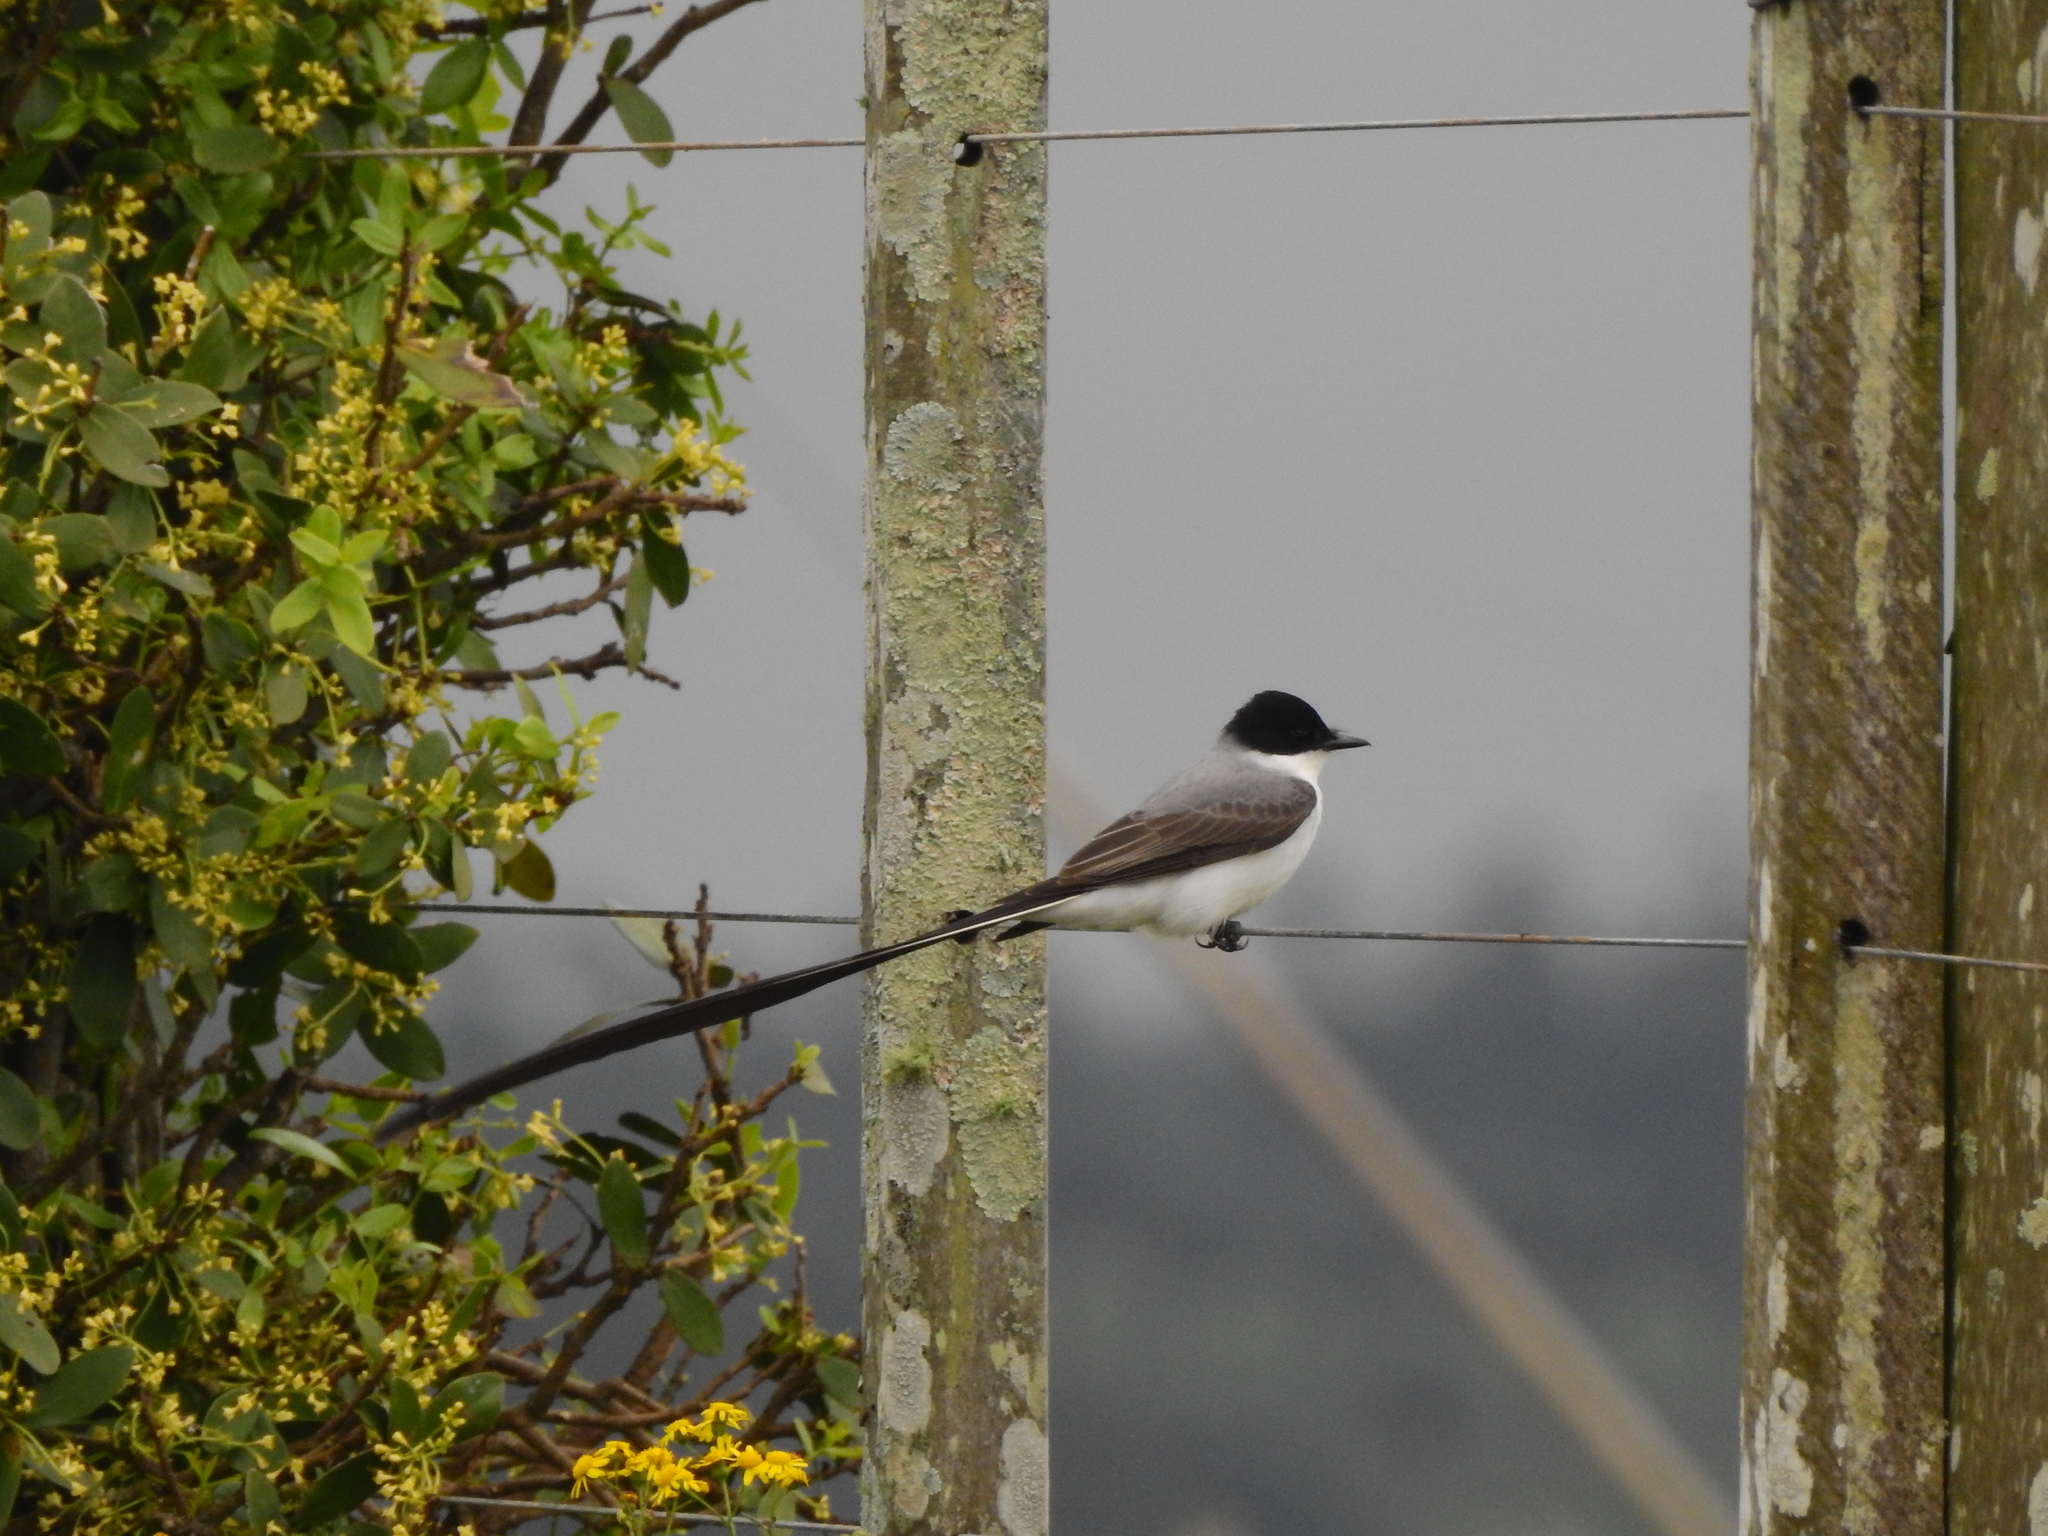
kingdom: Animalia
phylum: Chordata
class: Aves
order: Passeriformes
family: Tyrannidae
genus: Tyrannus
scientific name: Tyrannus savana
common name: Fork-tailed flycatcher
